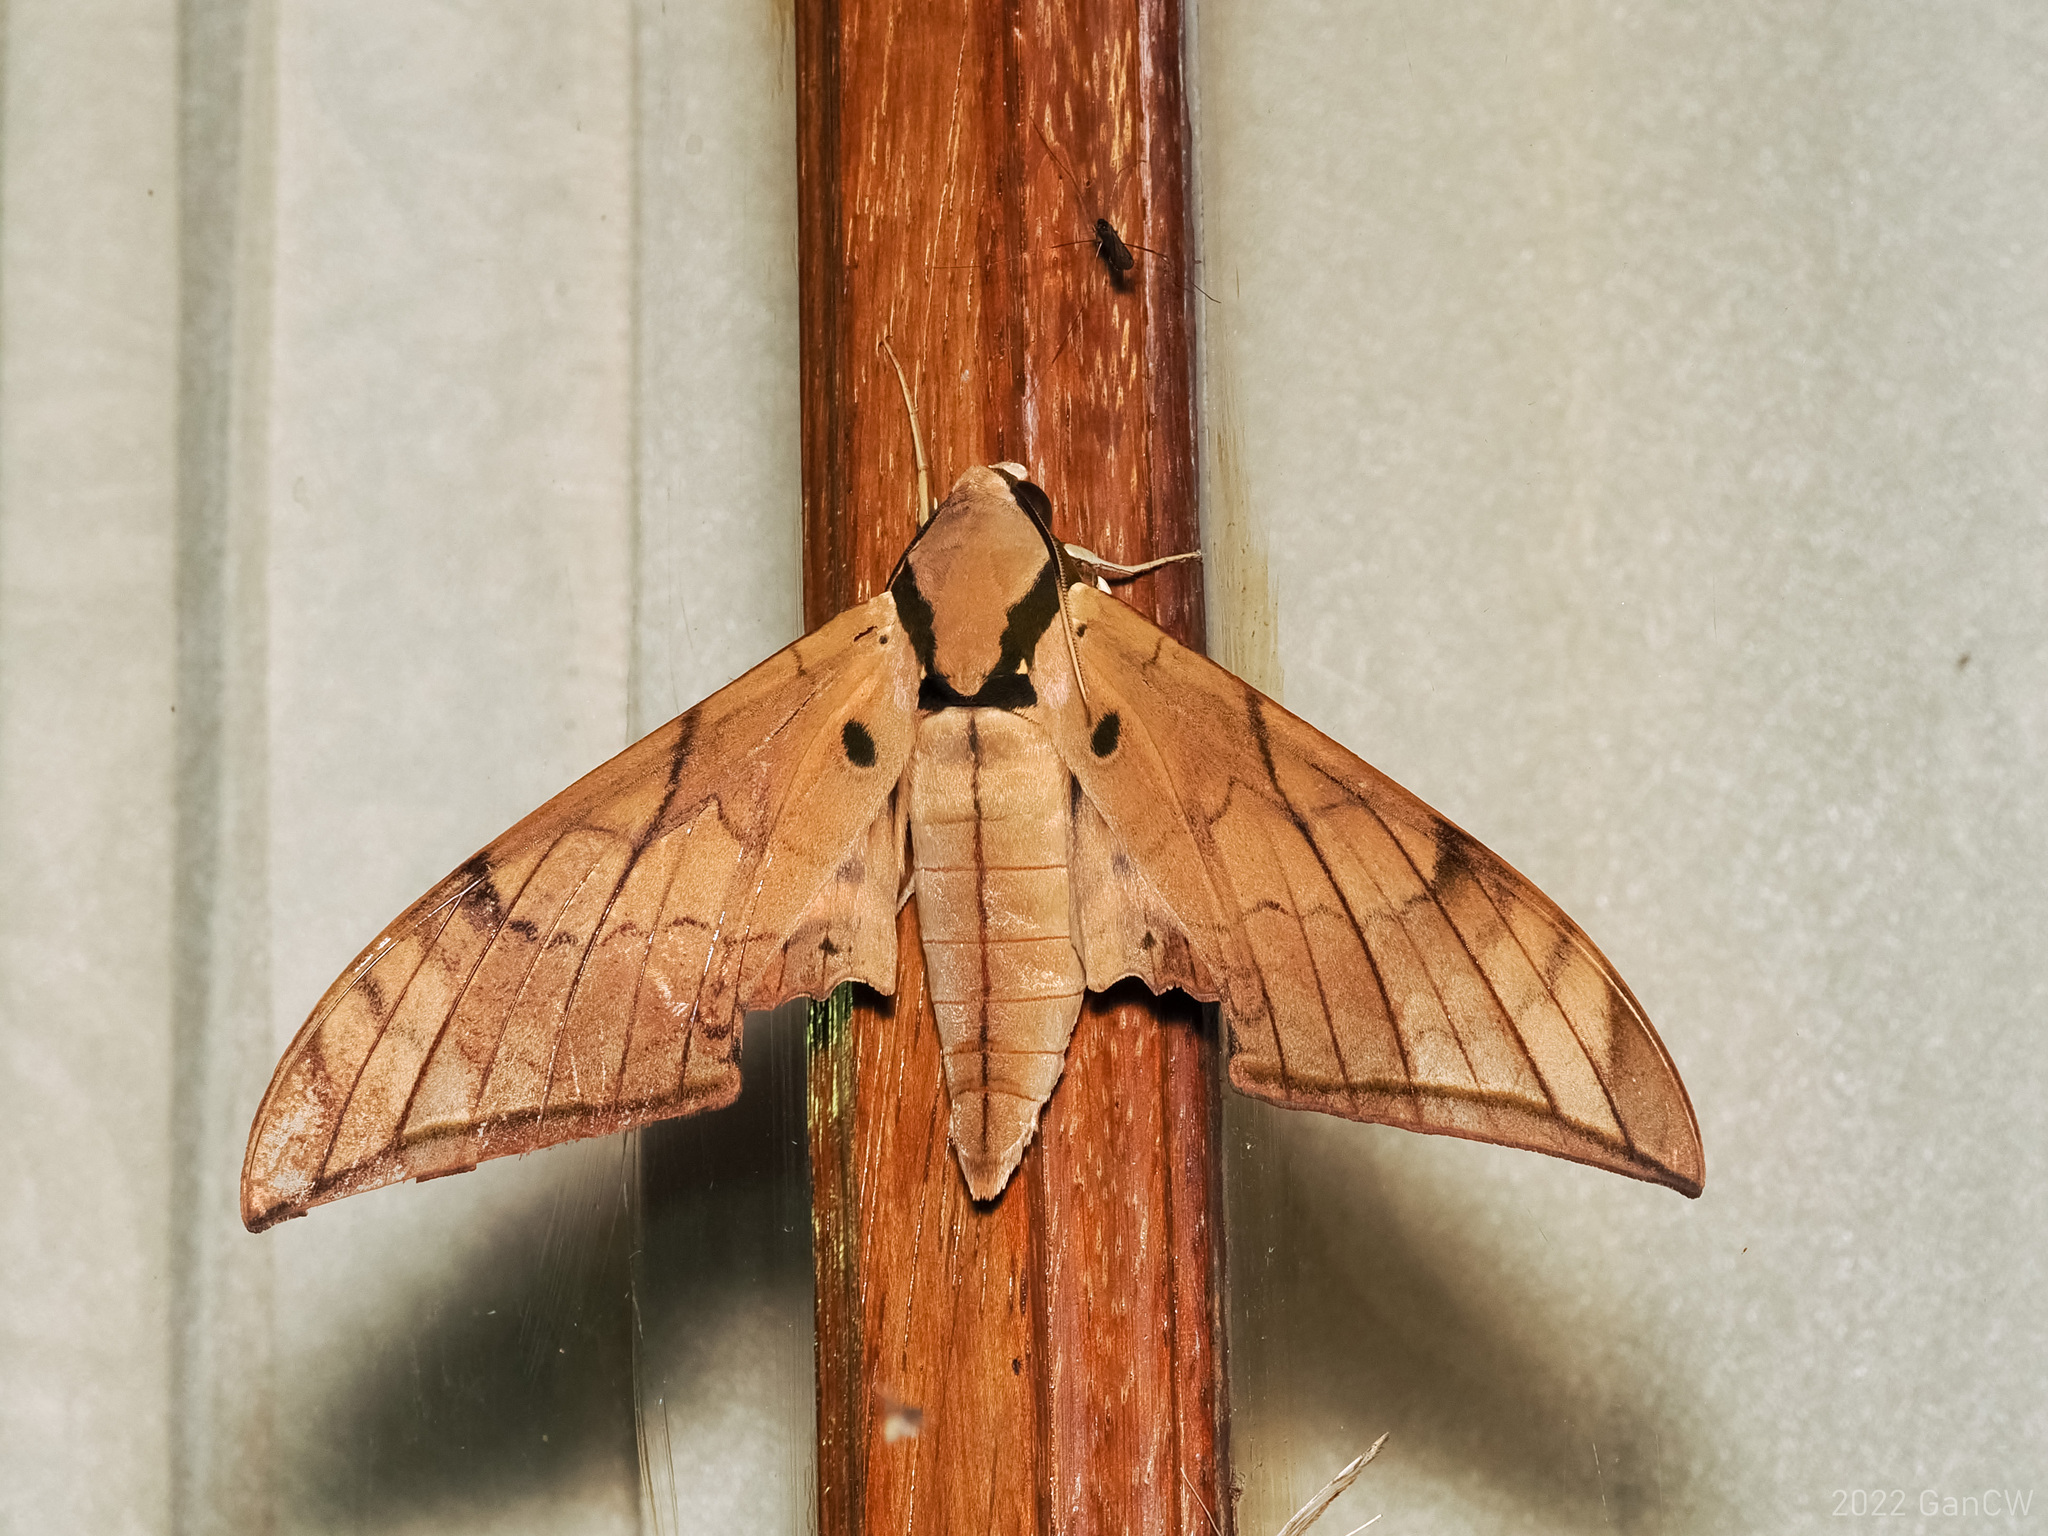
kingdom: Animalia
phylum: Arthropoda
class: Insecta
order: Lepidoptera
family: Sphingidae
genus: Ambulyx
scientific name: Ambulyx pryeri
